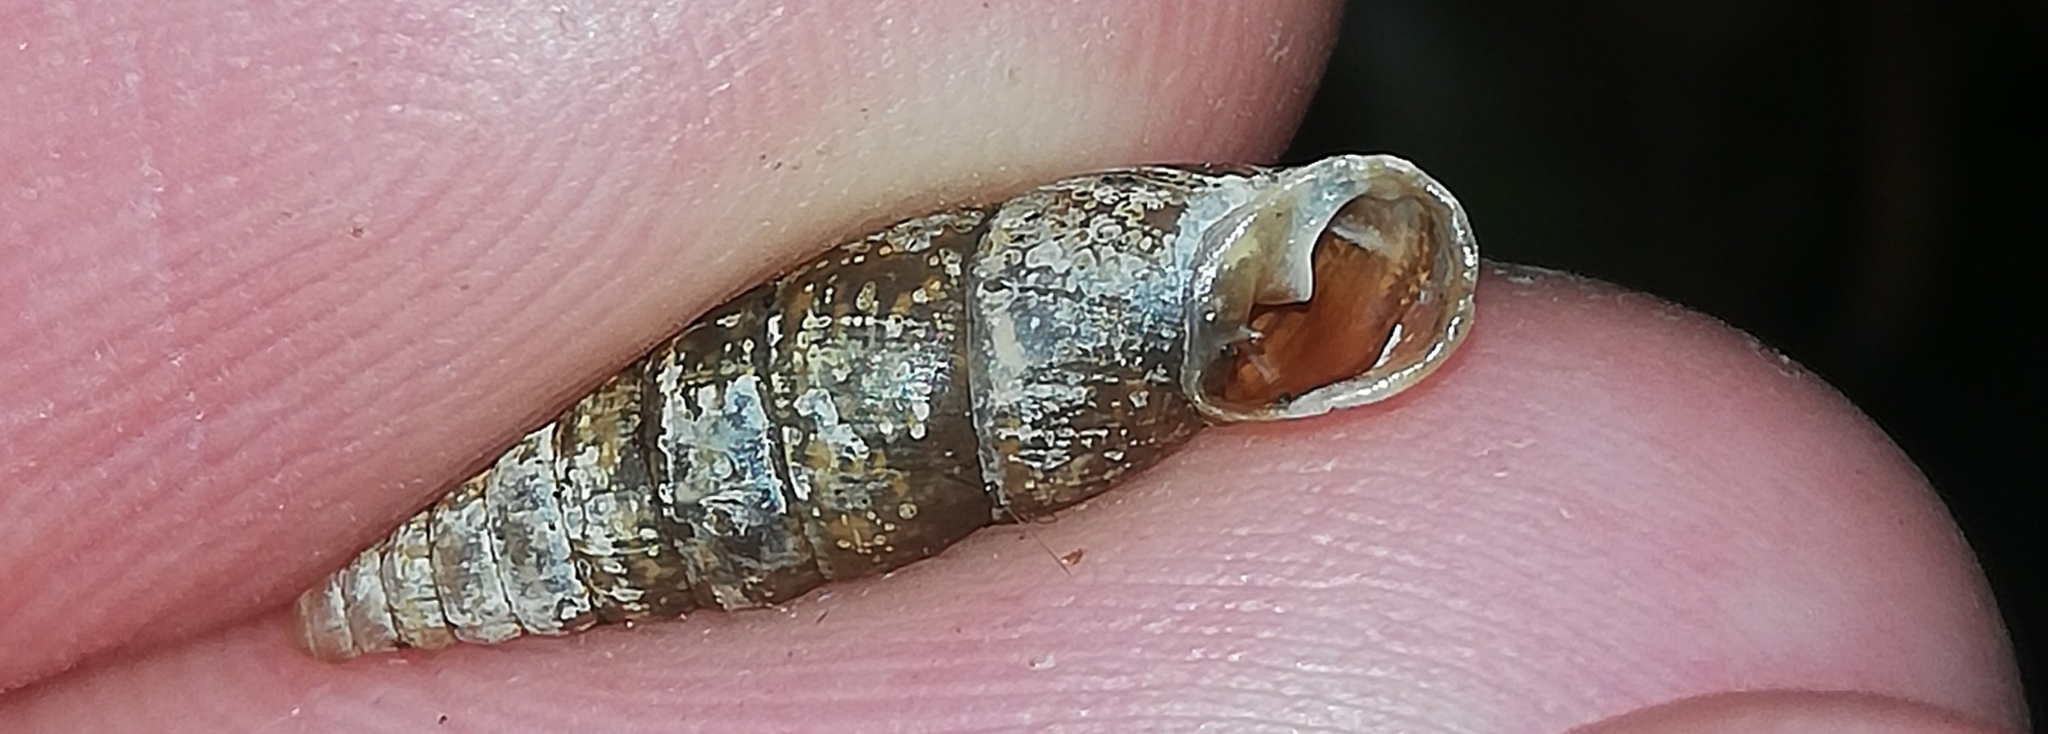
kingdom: Animalia
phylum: Mollusca
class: Gastropoda
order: Stylommatophora
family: Clausiliidae
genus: Cochlodina
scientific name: Cochlodina laminata
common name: Plaited door snail
